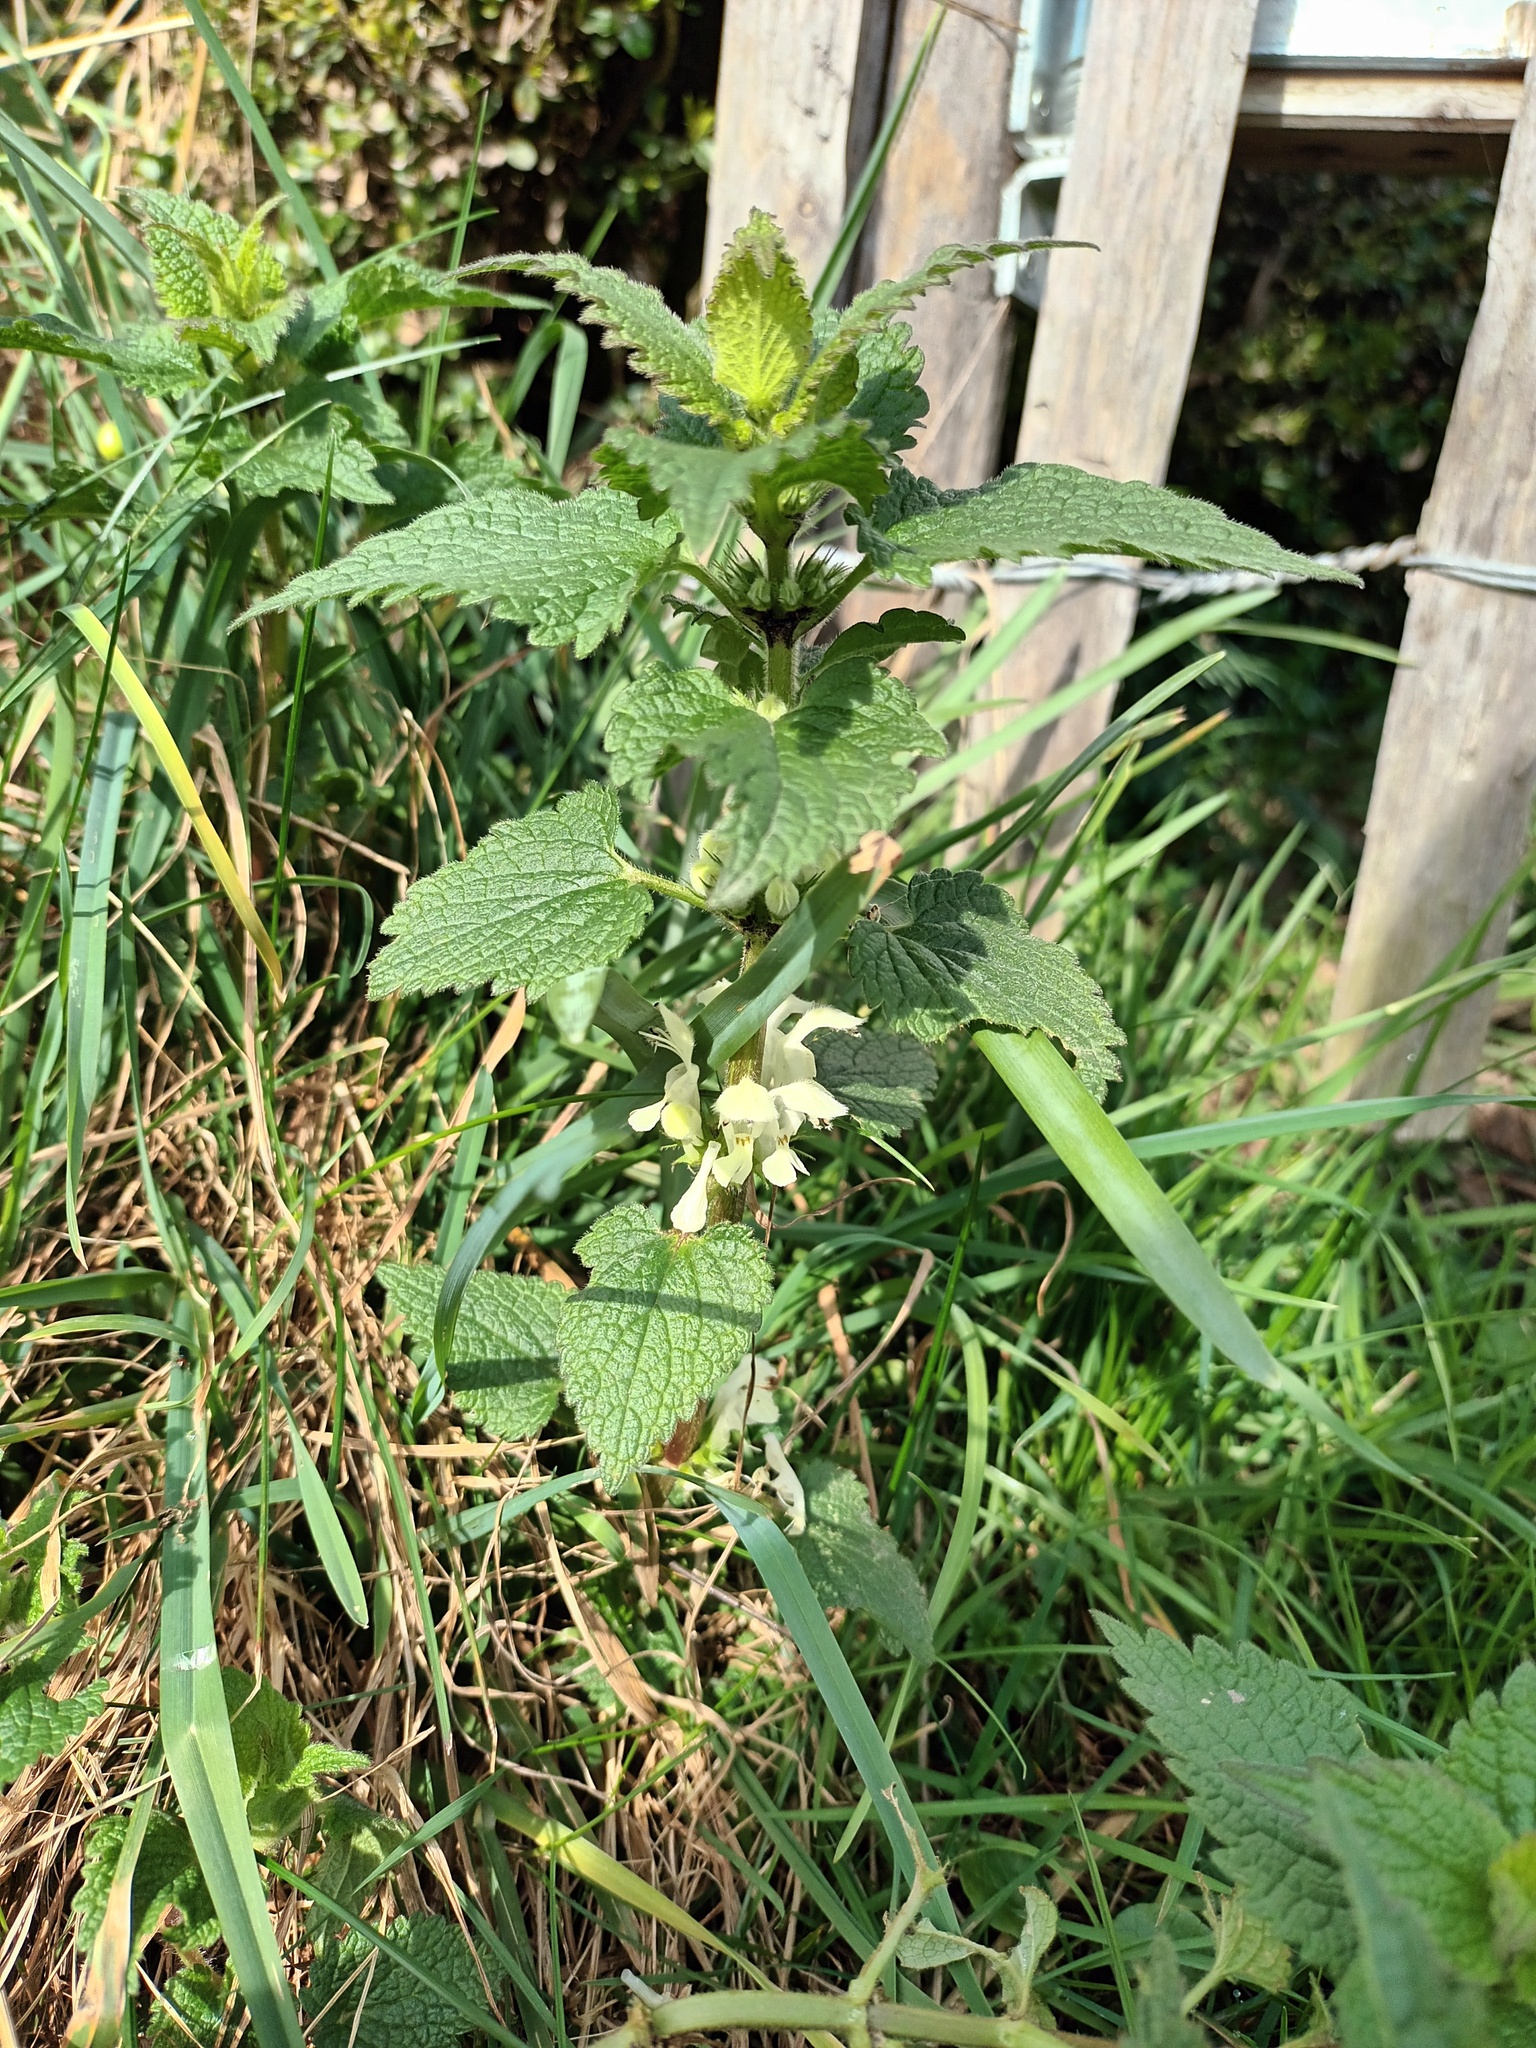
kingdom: Plantae
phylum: Tracheophyta
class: Magnoliopsida
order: Lamiales
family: Lamiaceae
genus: Lamium
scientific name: Lamium album
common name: White dead-nettle
